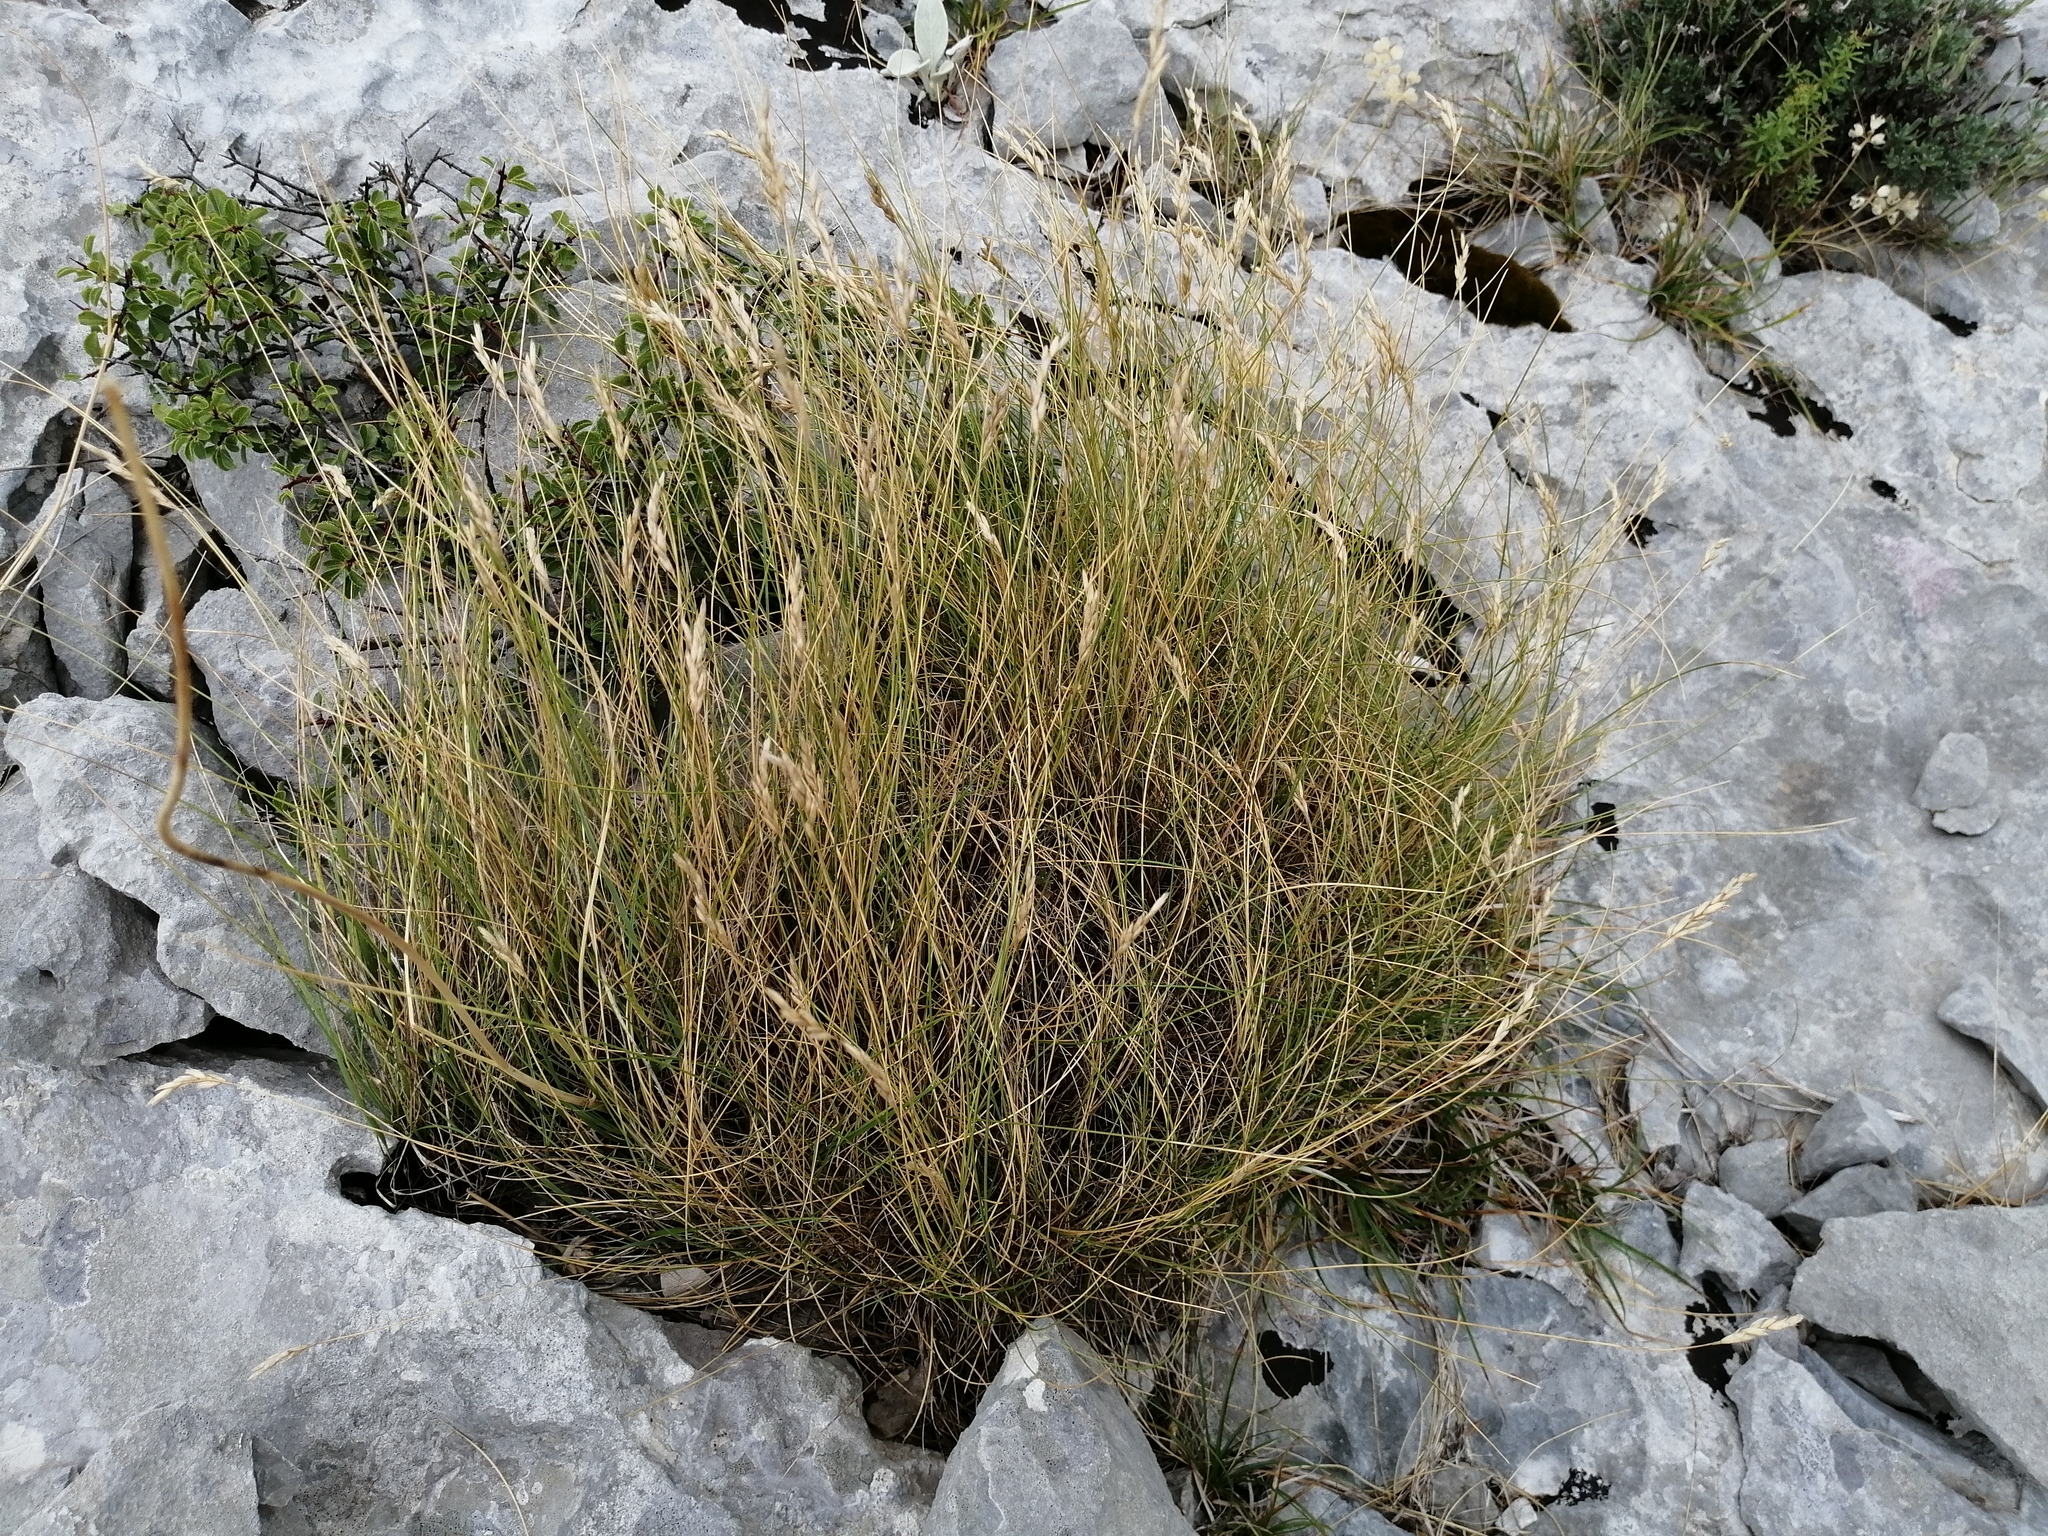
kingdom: Plantae
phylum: Tracheophyta
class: Liliopsida
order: Poales
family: Poaceae
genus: Sesleria
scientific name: Sesleria juncifolia
